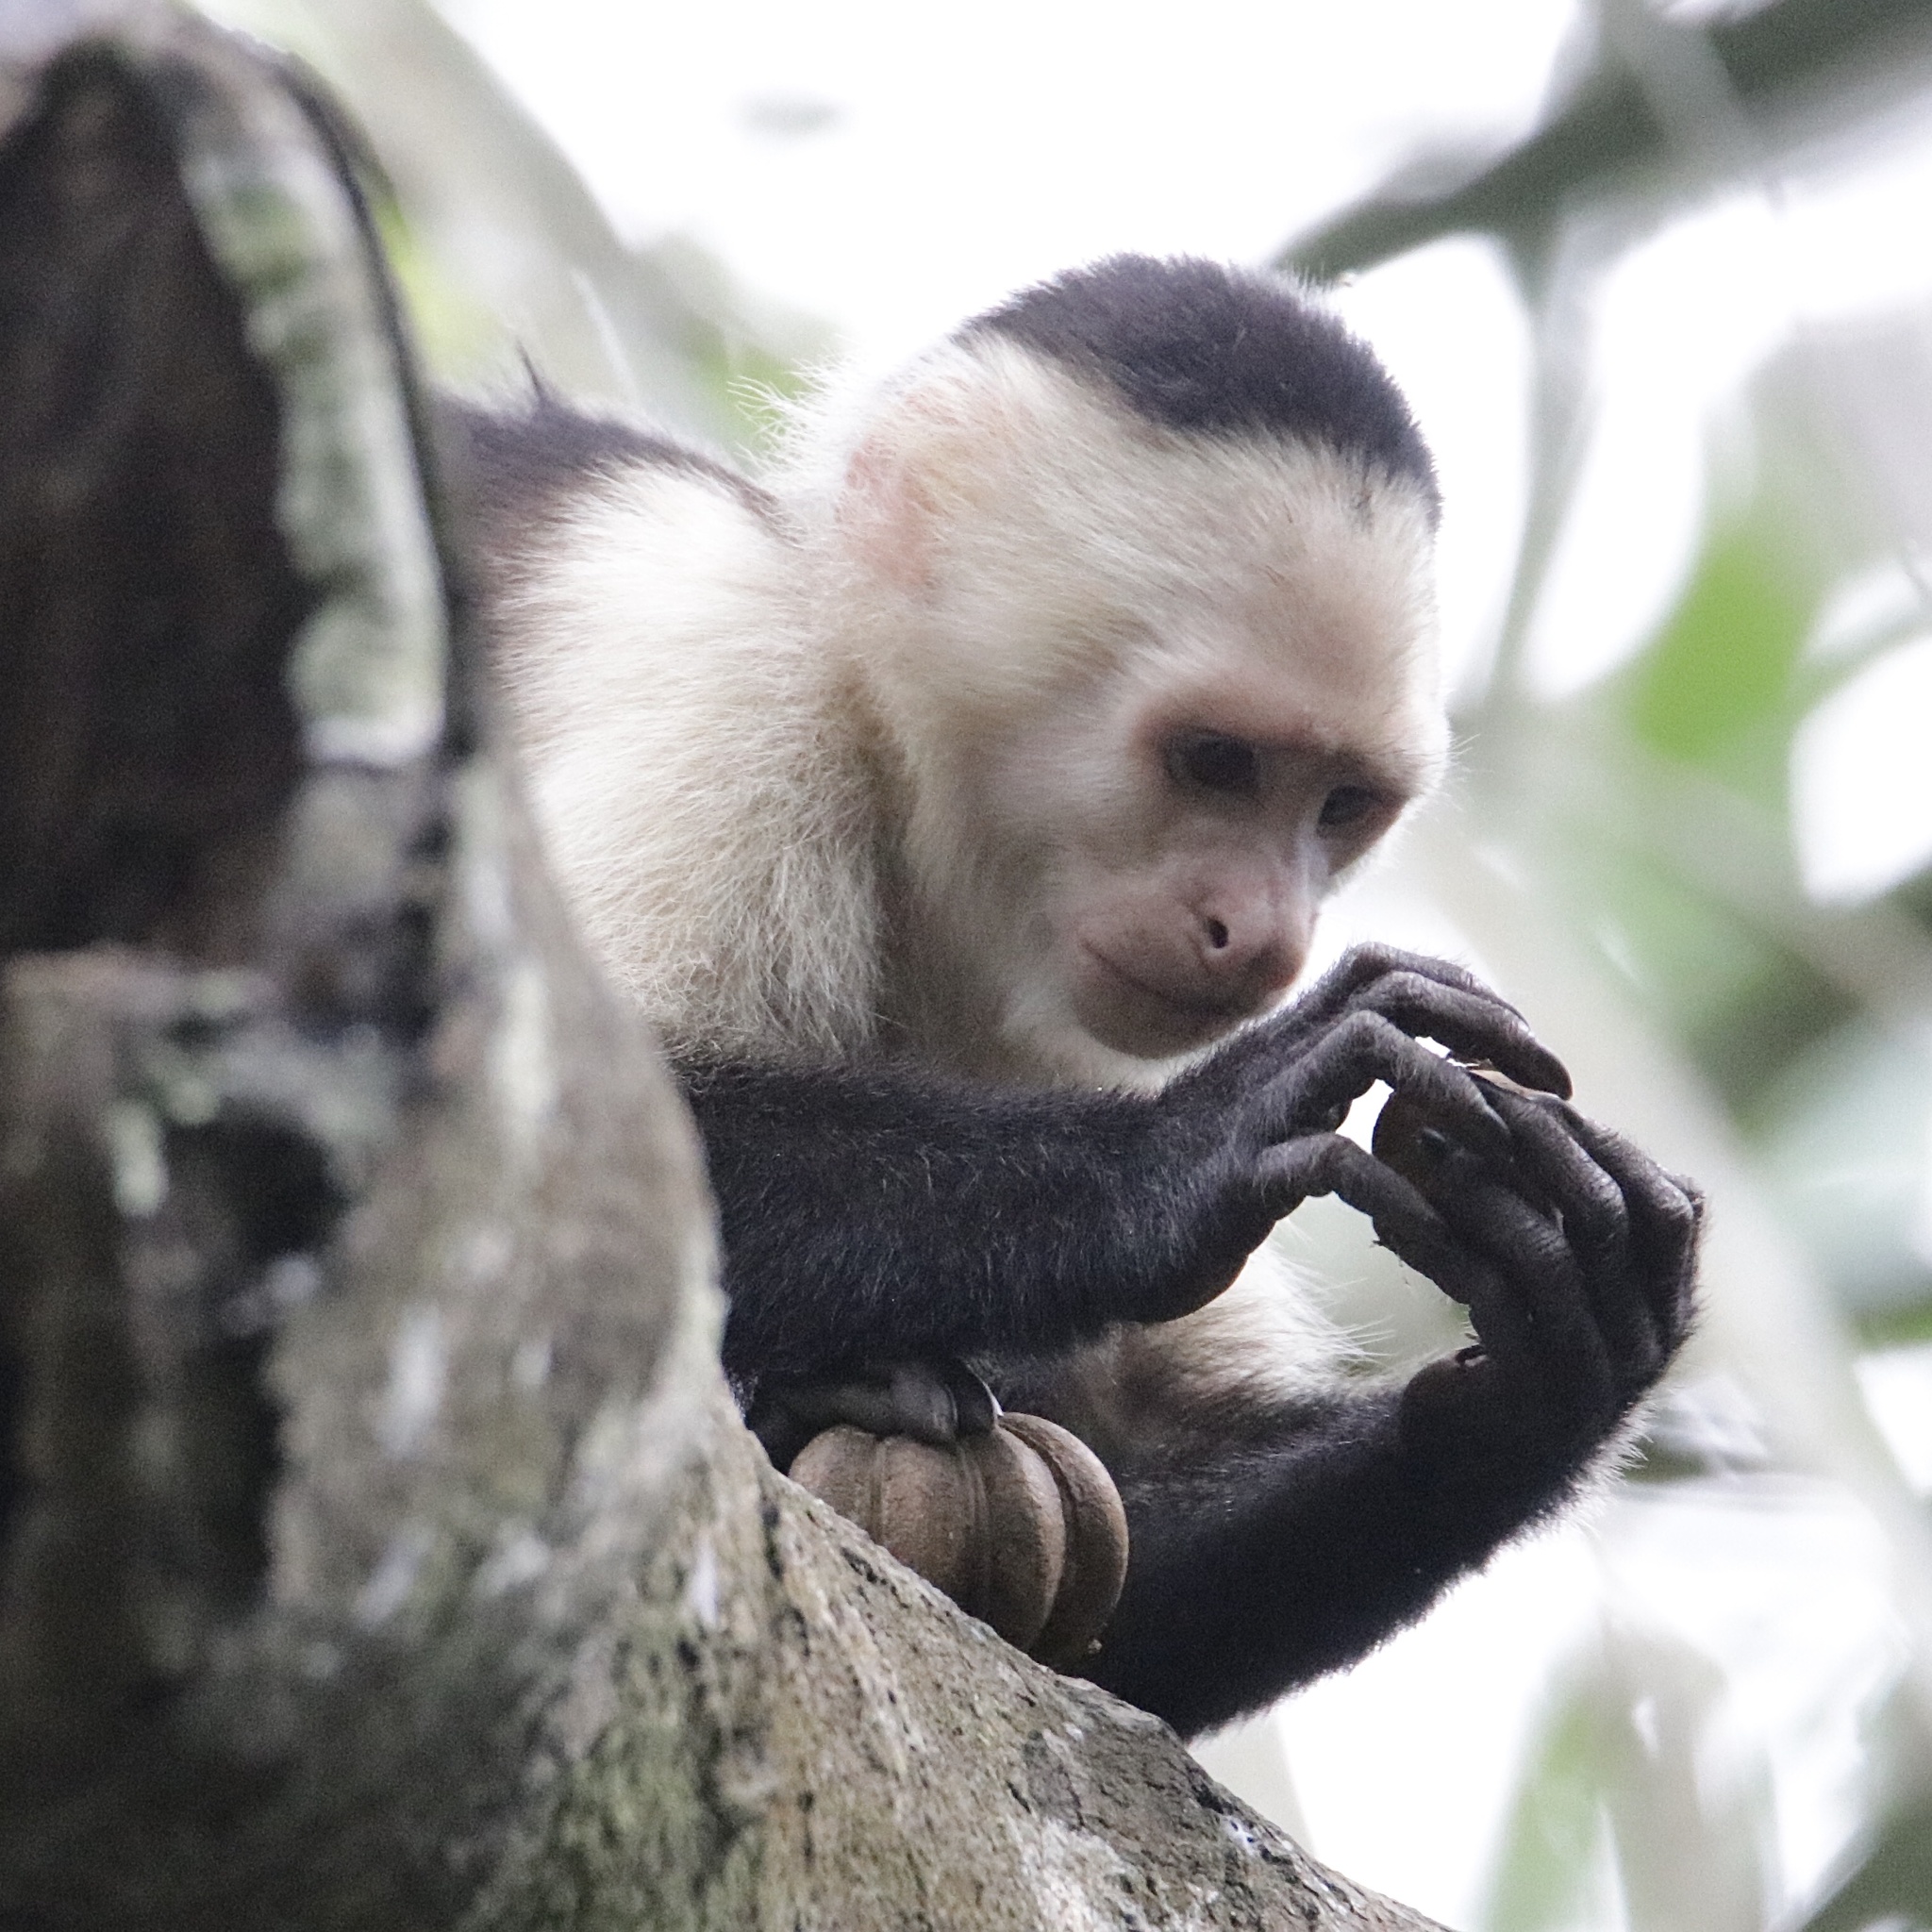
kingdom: Animalia
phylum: Chordata
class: Mammalia
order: Primates
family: Cebidae
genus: Cebus
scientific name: Cebus imitator
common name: Panamanian white-faced capuchin
